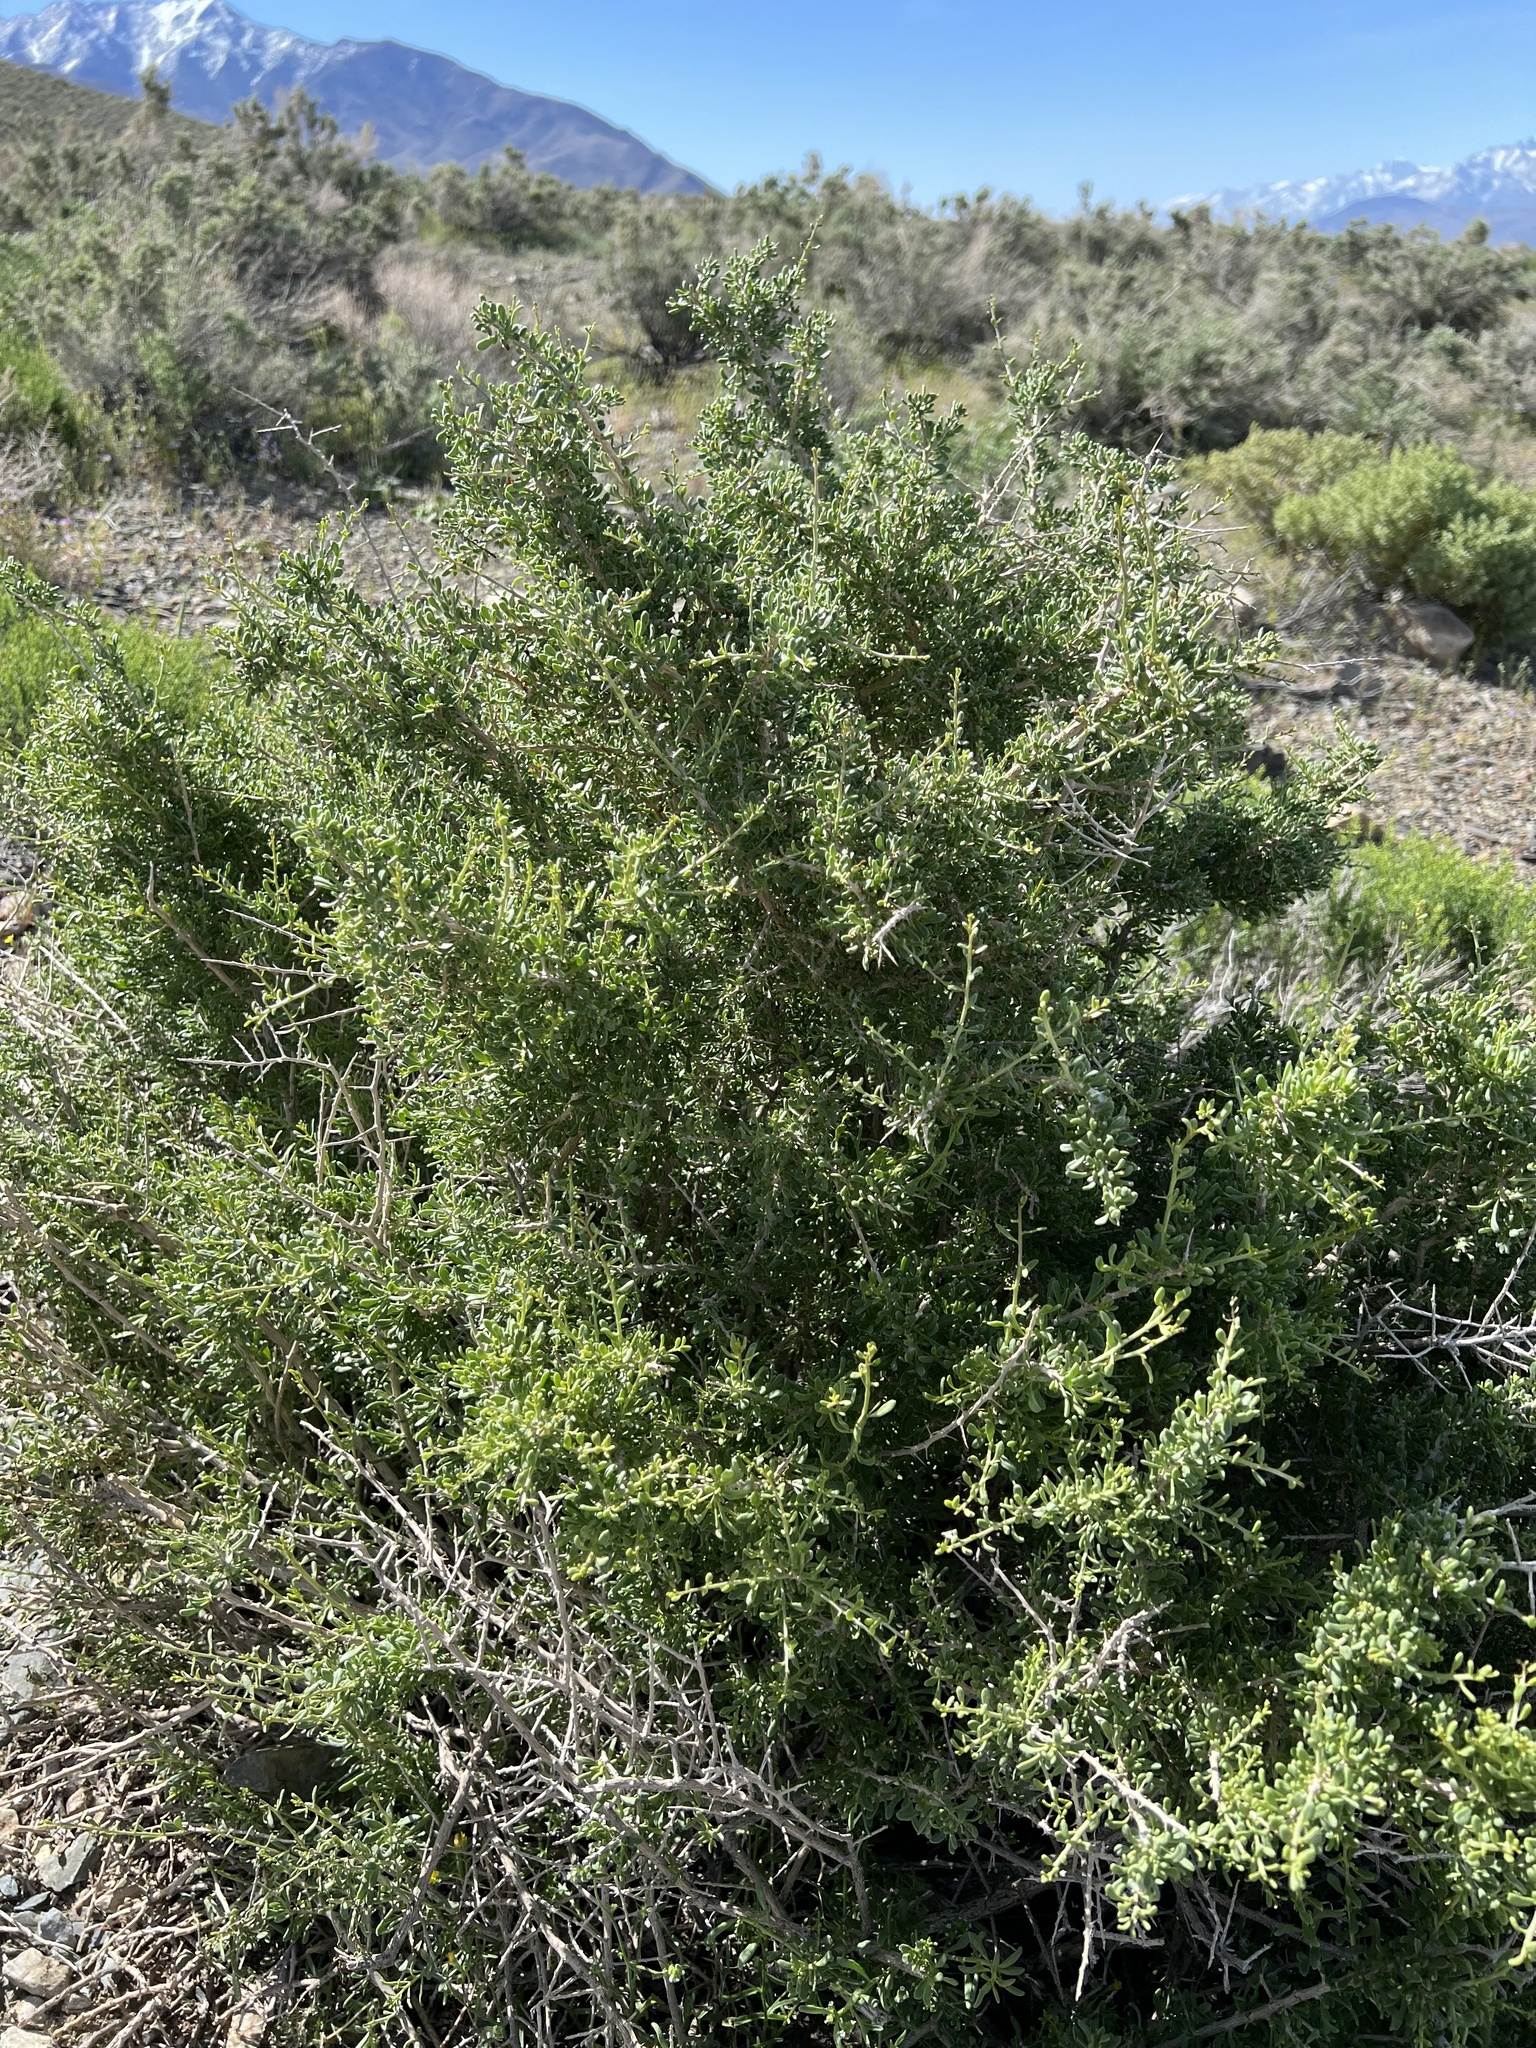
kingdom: Plantae
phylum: Tracheophyta
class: Magnoliopsida
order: Solanales
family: Solanaceae
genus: Lycium
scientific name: Lycium andersonii
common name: Water-jacket
